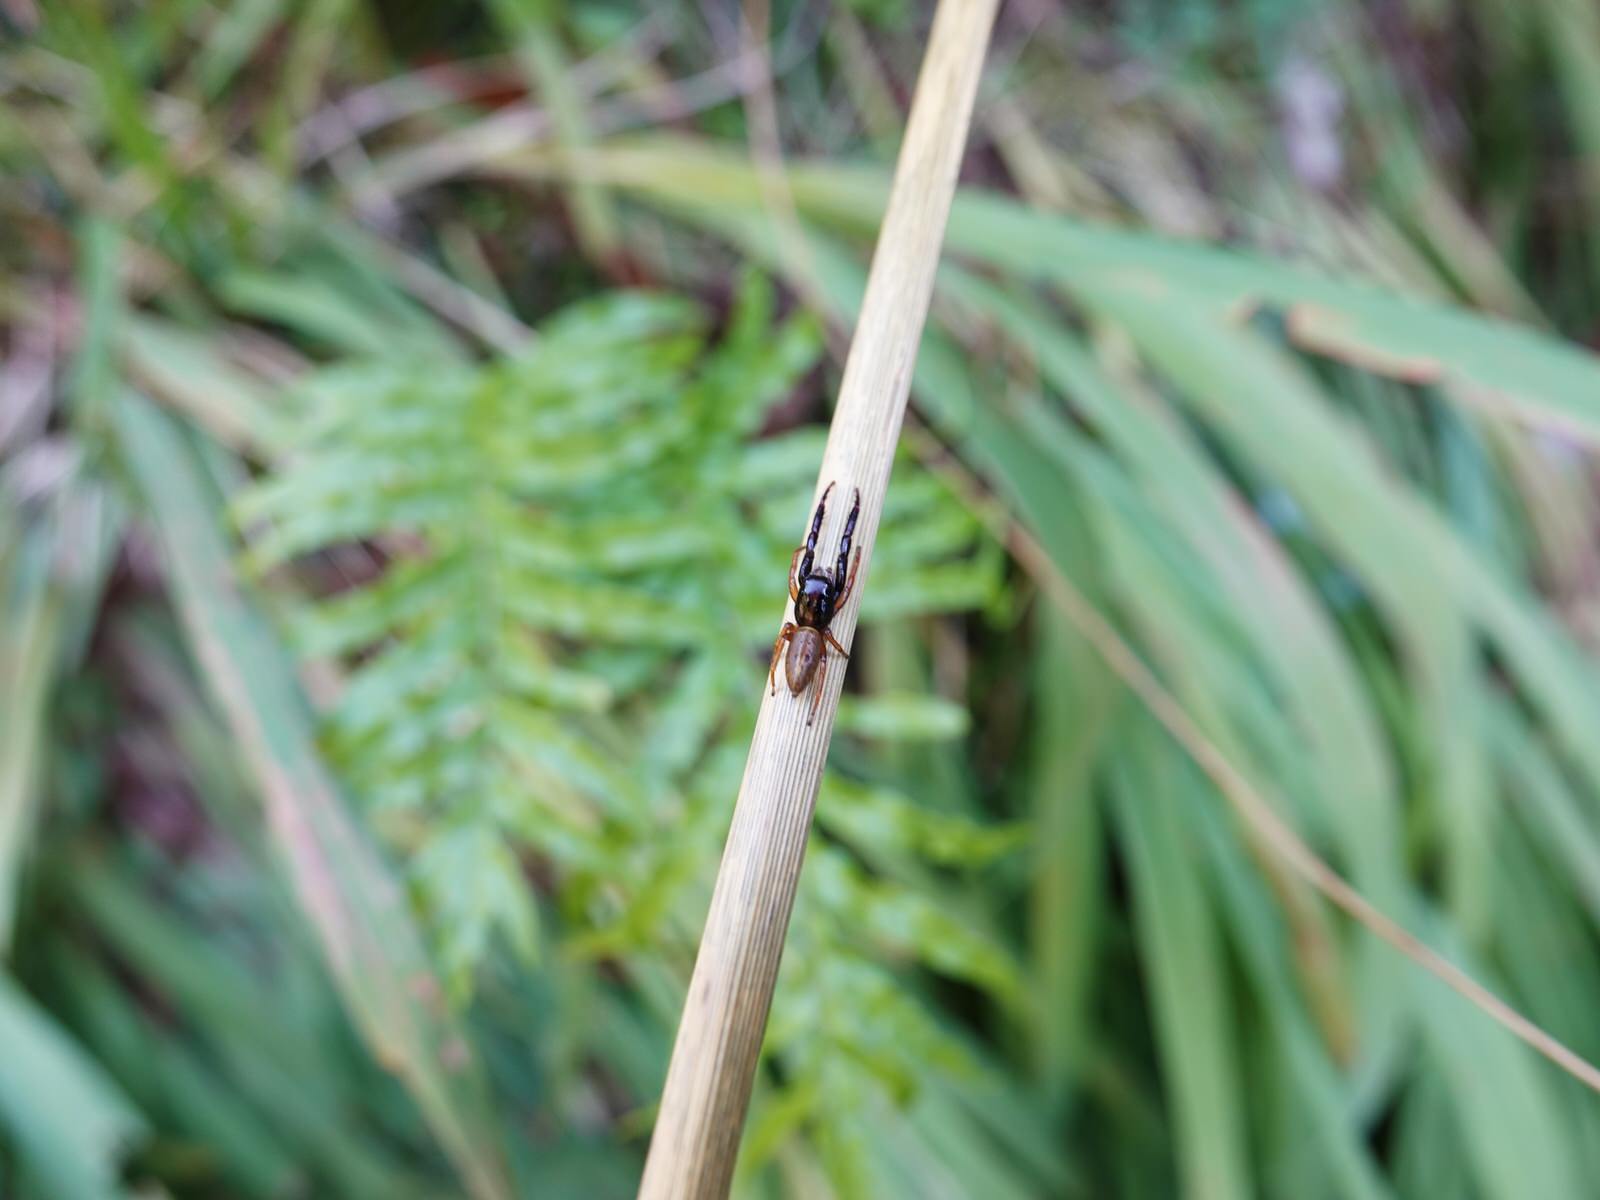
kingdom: Animalia
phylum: Arthropoda
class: Arachnida
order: Araneae
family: Salticidae
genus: Trite
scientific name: Trite planiceps
